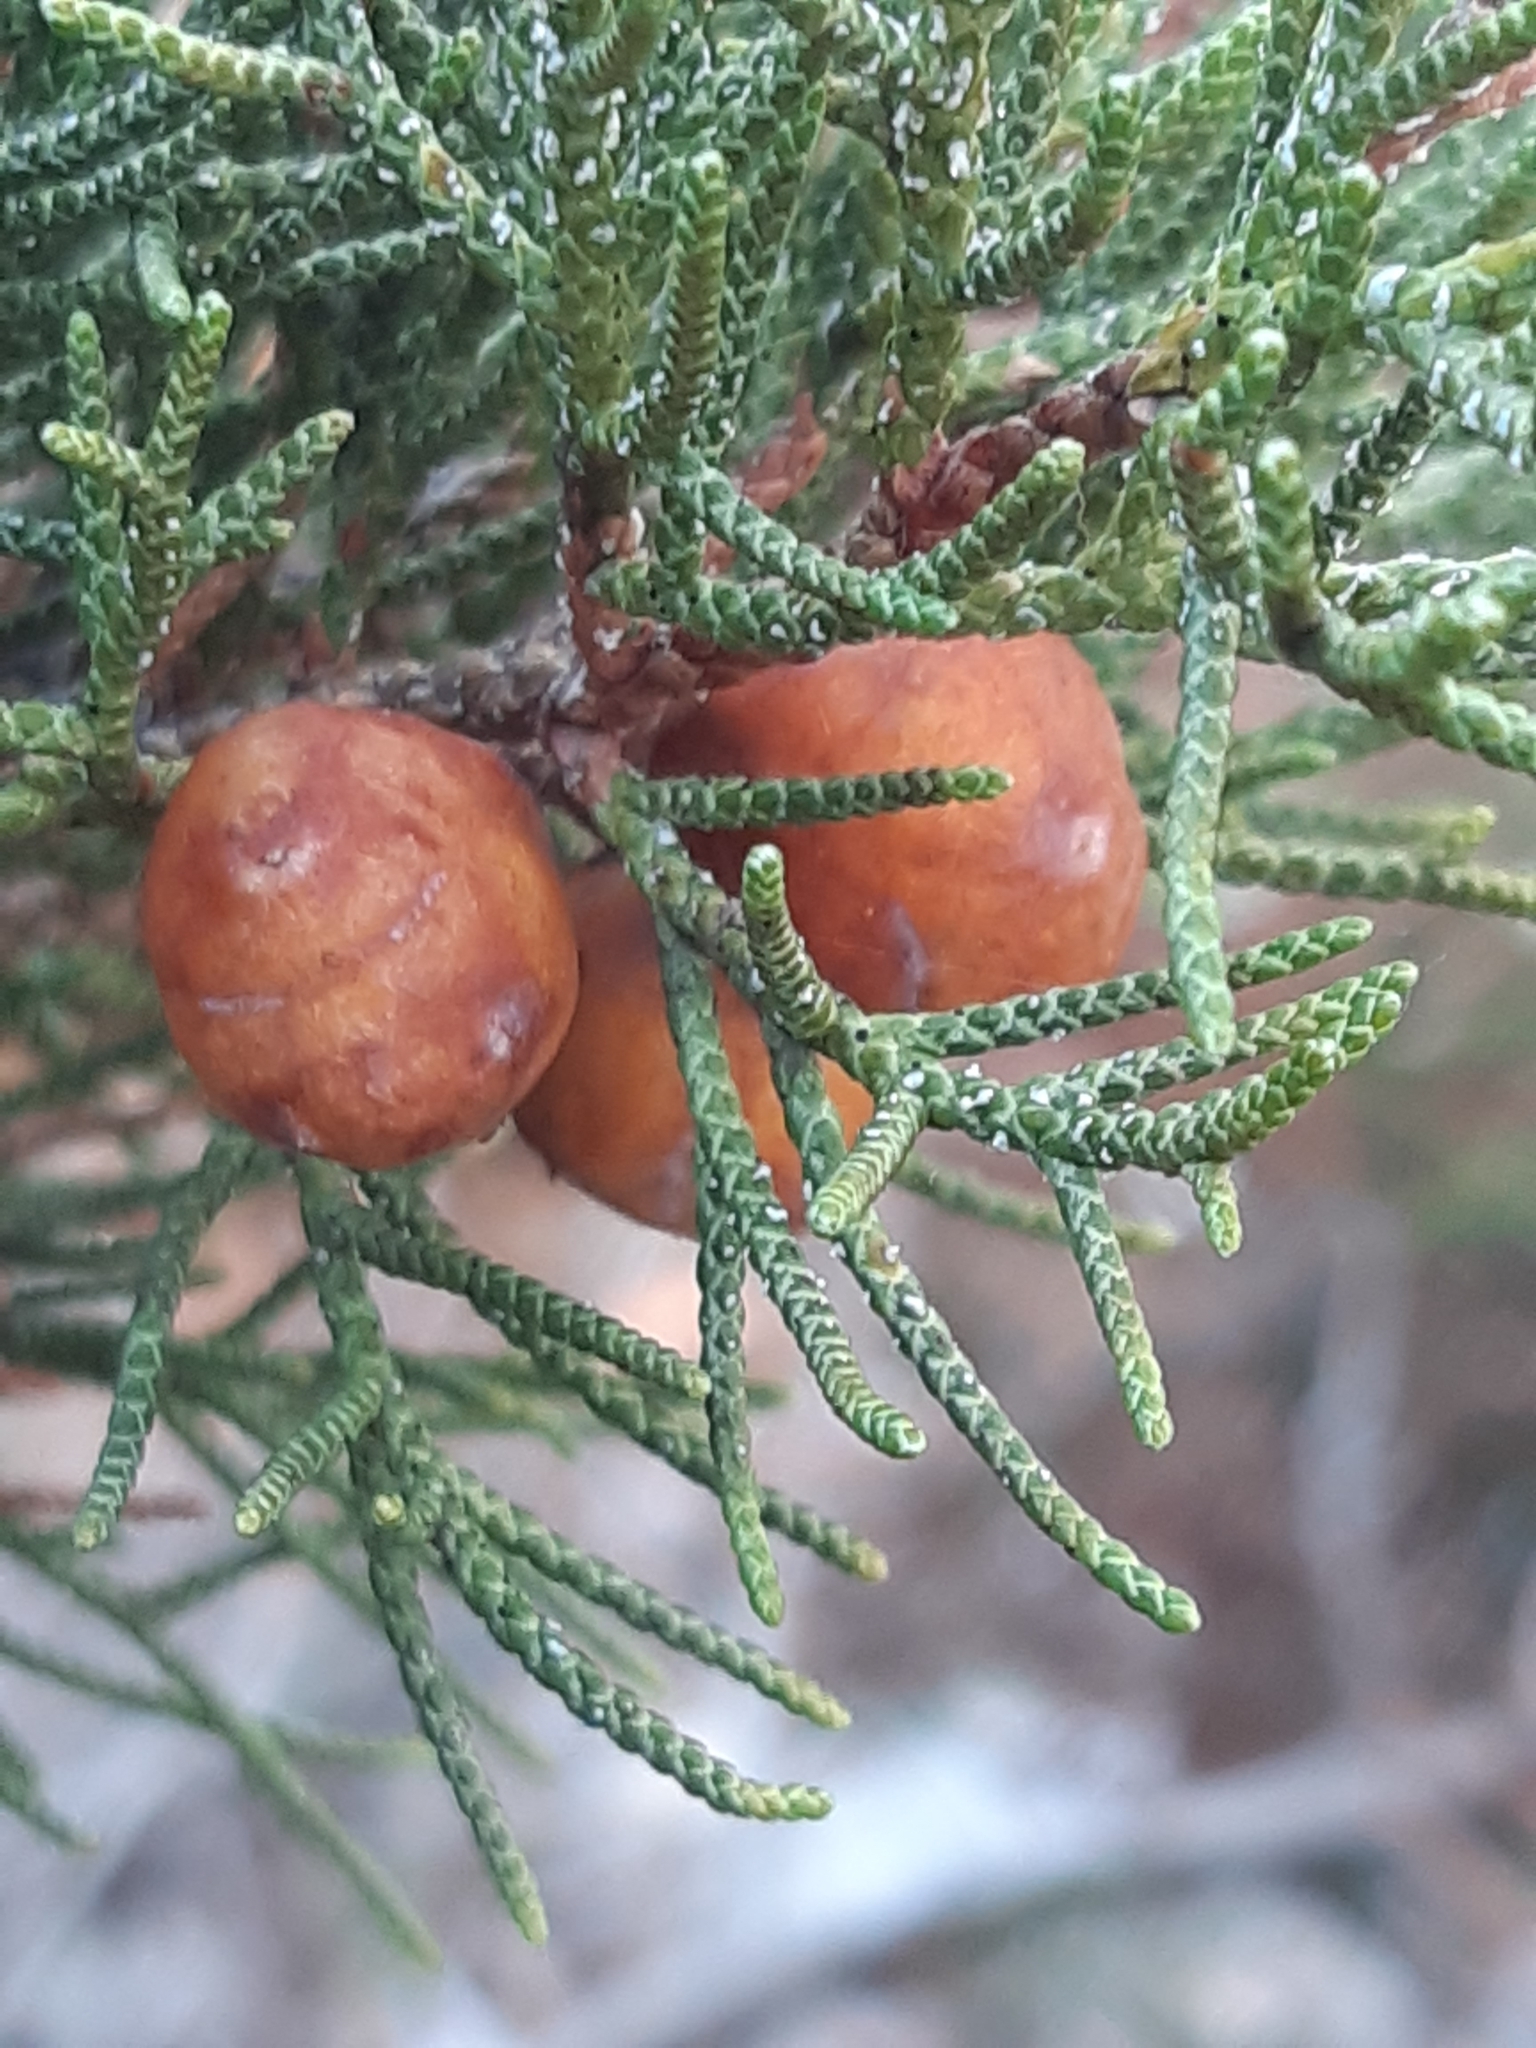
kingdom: Plantae
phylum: Tracheophyta
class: Pinopsida
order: Pinales
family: Cupressaceae
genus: Juniperus
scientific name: Juniperus phoenicea
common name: Phoenician juniper
